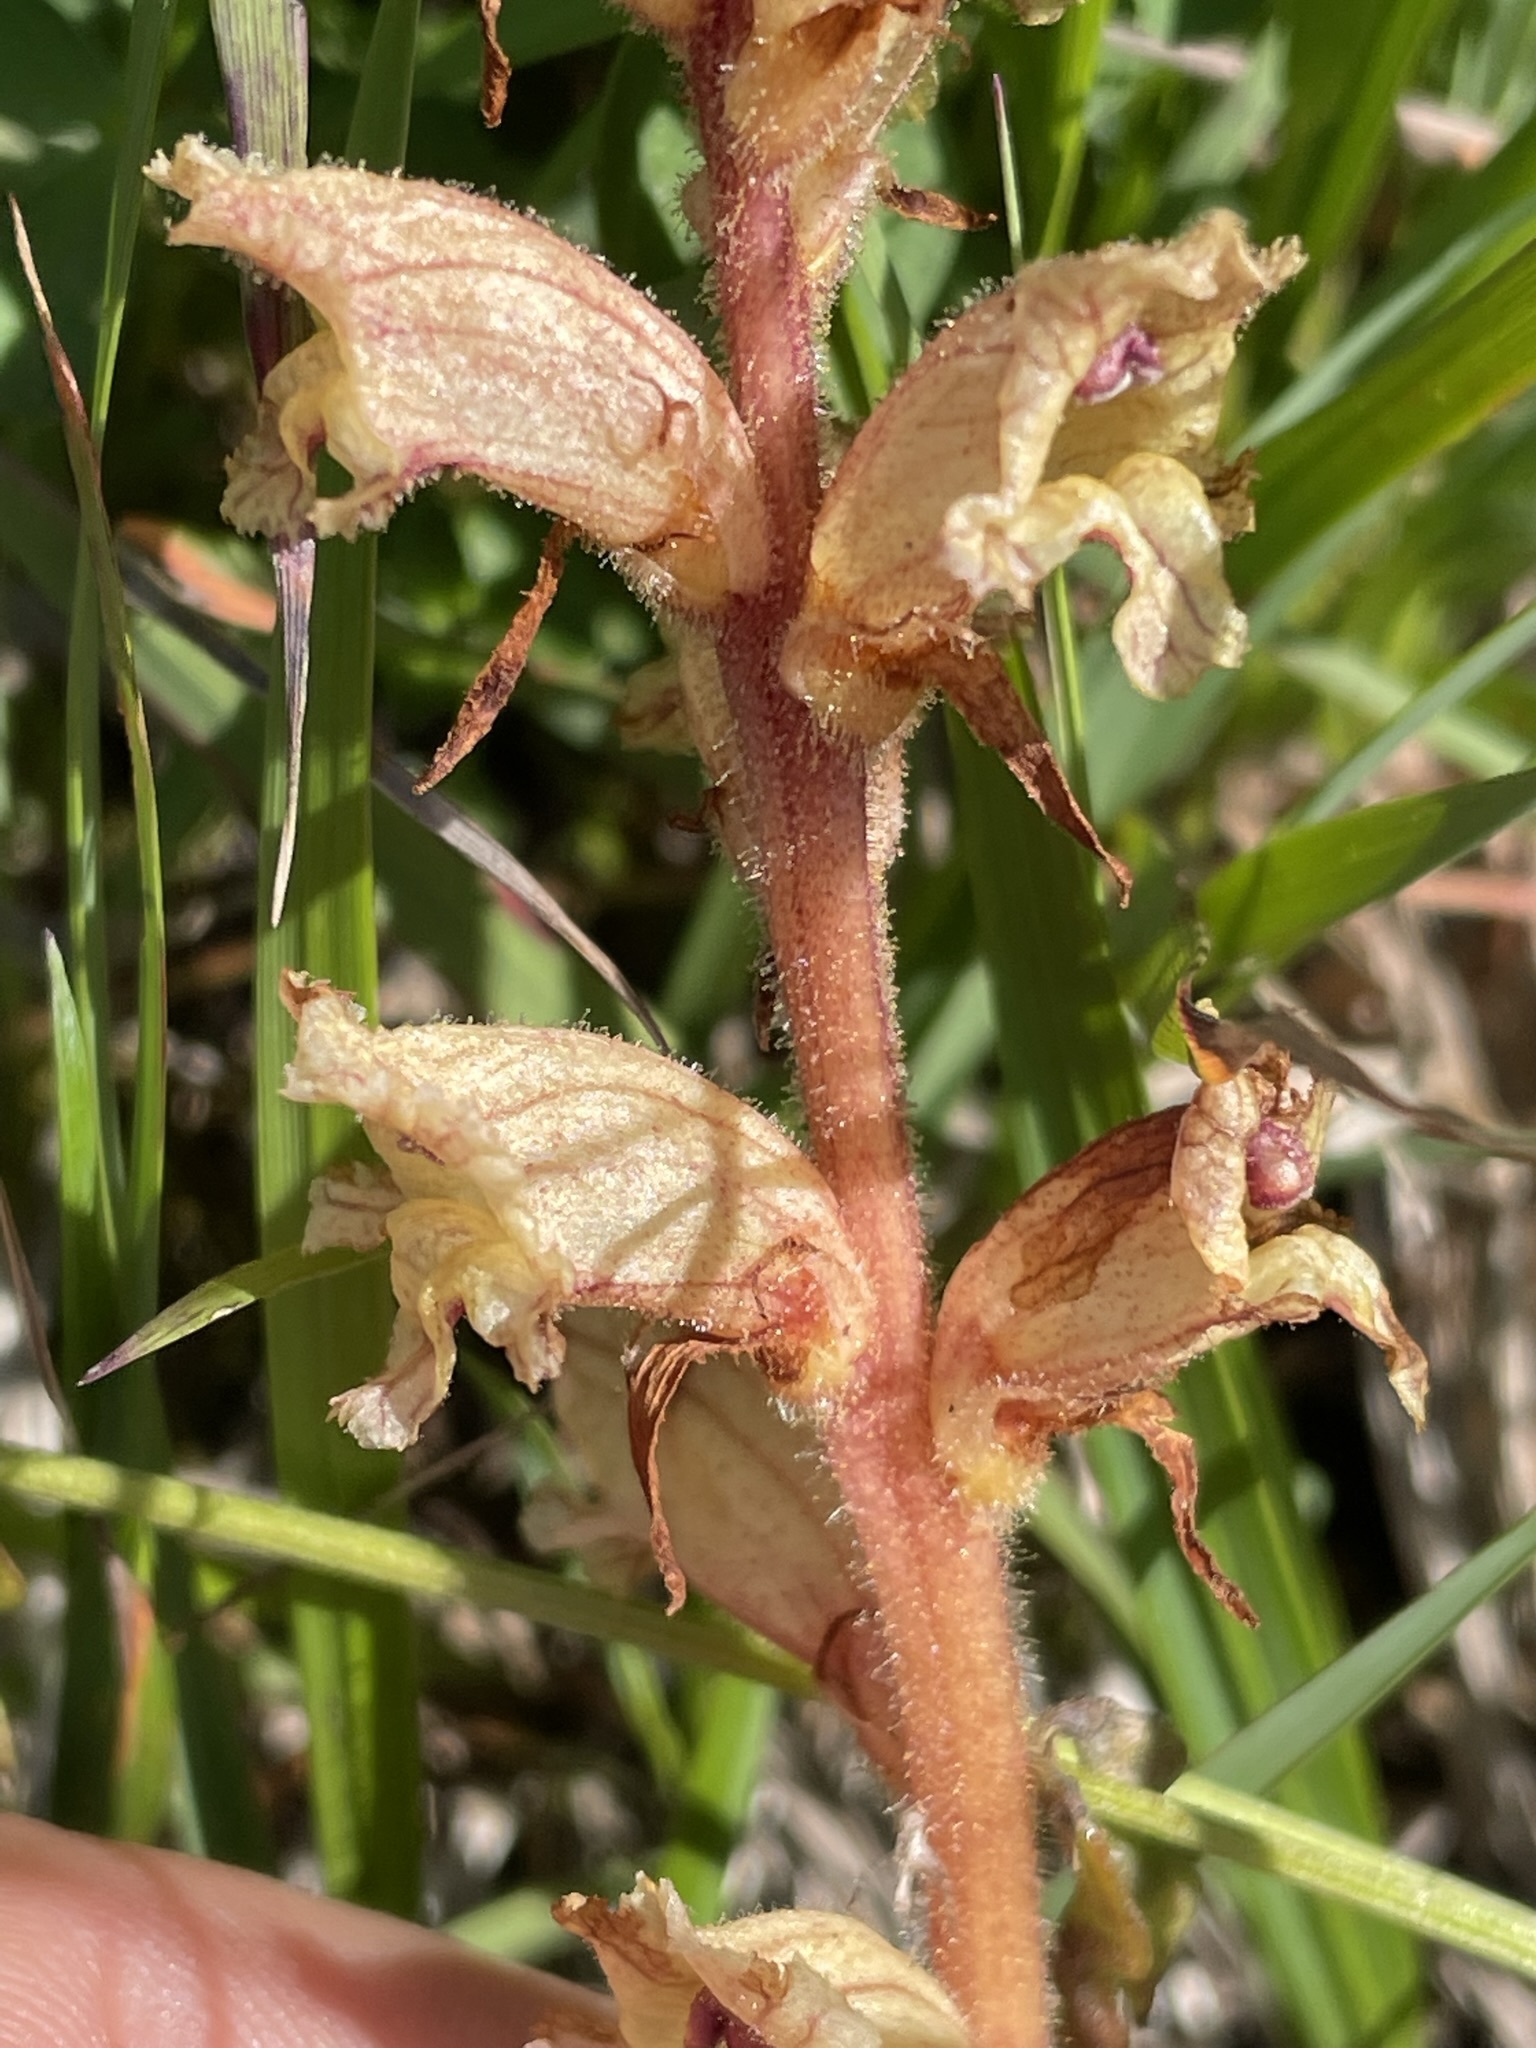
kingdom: Plantae
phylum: Tracheophyta
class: Magnoliopsida
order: Lamiales
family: Orobanchaceae
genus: Orobanche
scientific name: Orobanche alba
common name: Thyme broomrape
